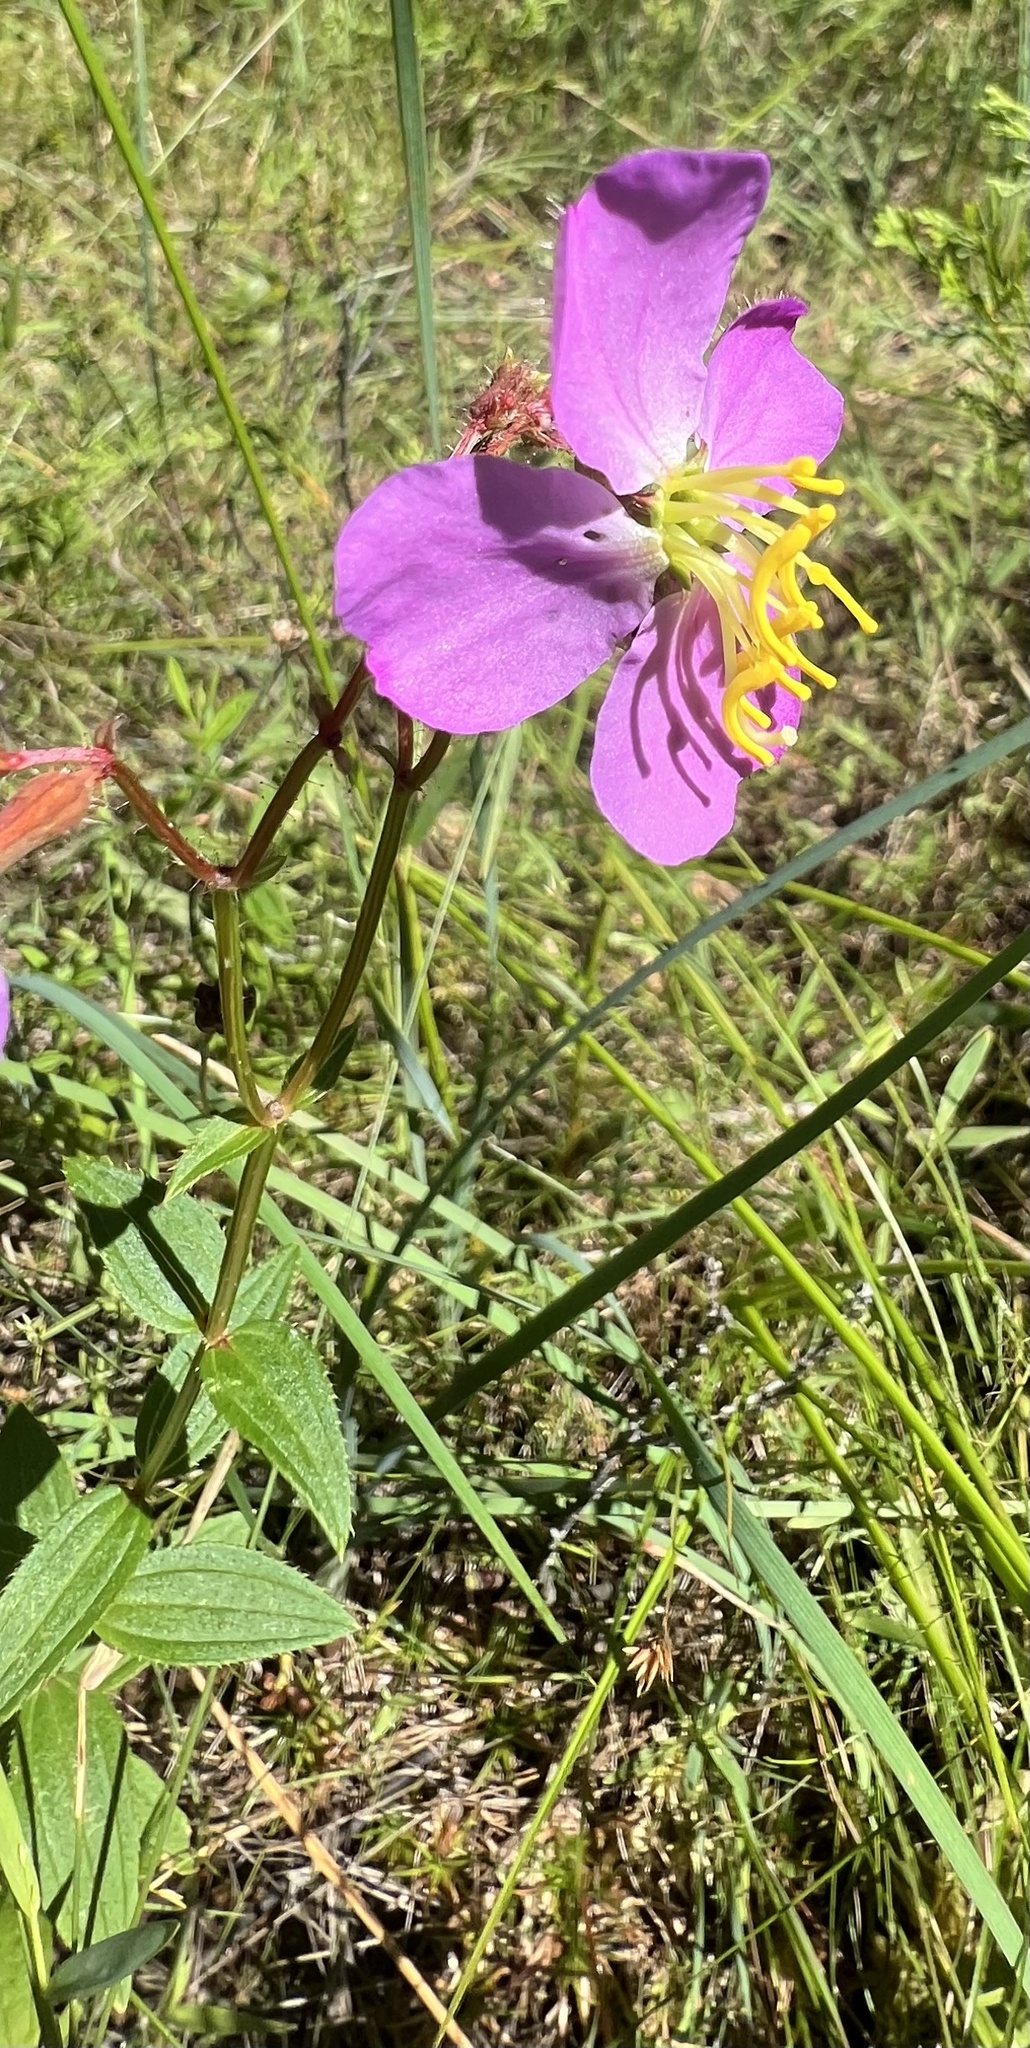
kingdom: Plantae
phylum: Tracheophyta
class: Magnoliopsida
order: Myrtales
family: Melastomataceae
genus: Rhexia
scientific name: Rhexia virginica
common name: Common meadow beauty
